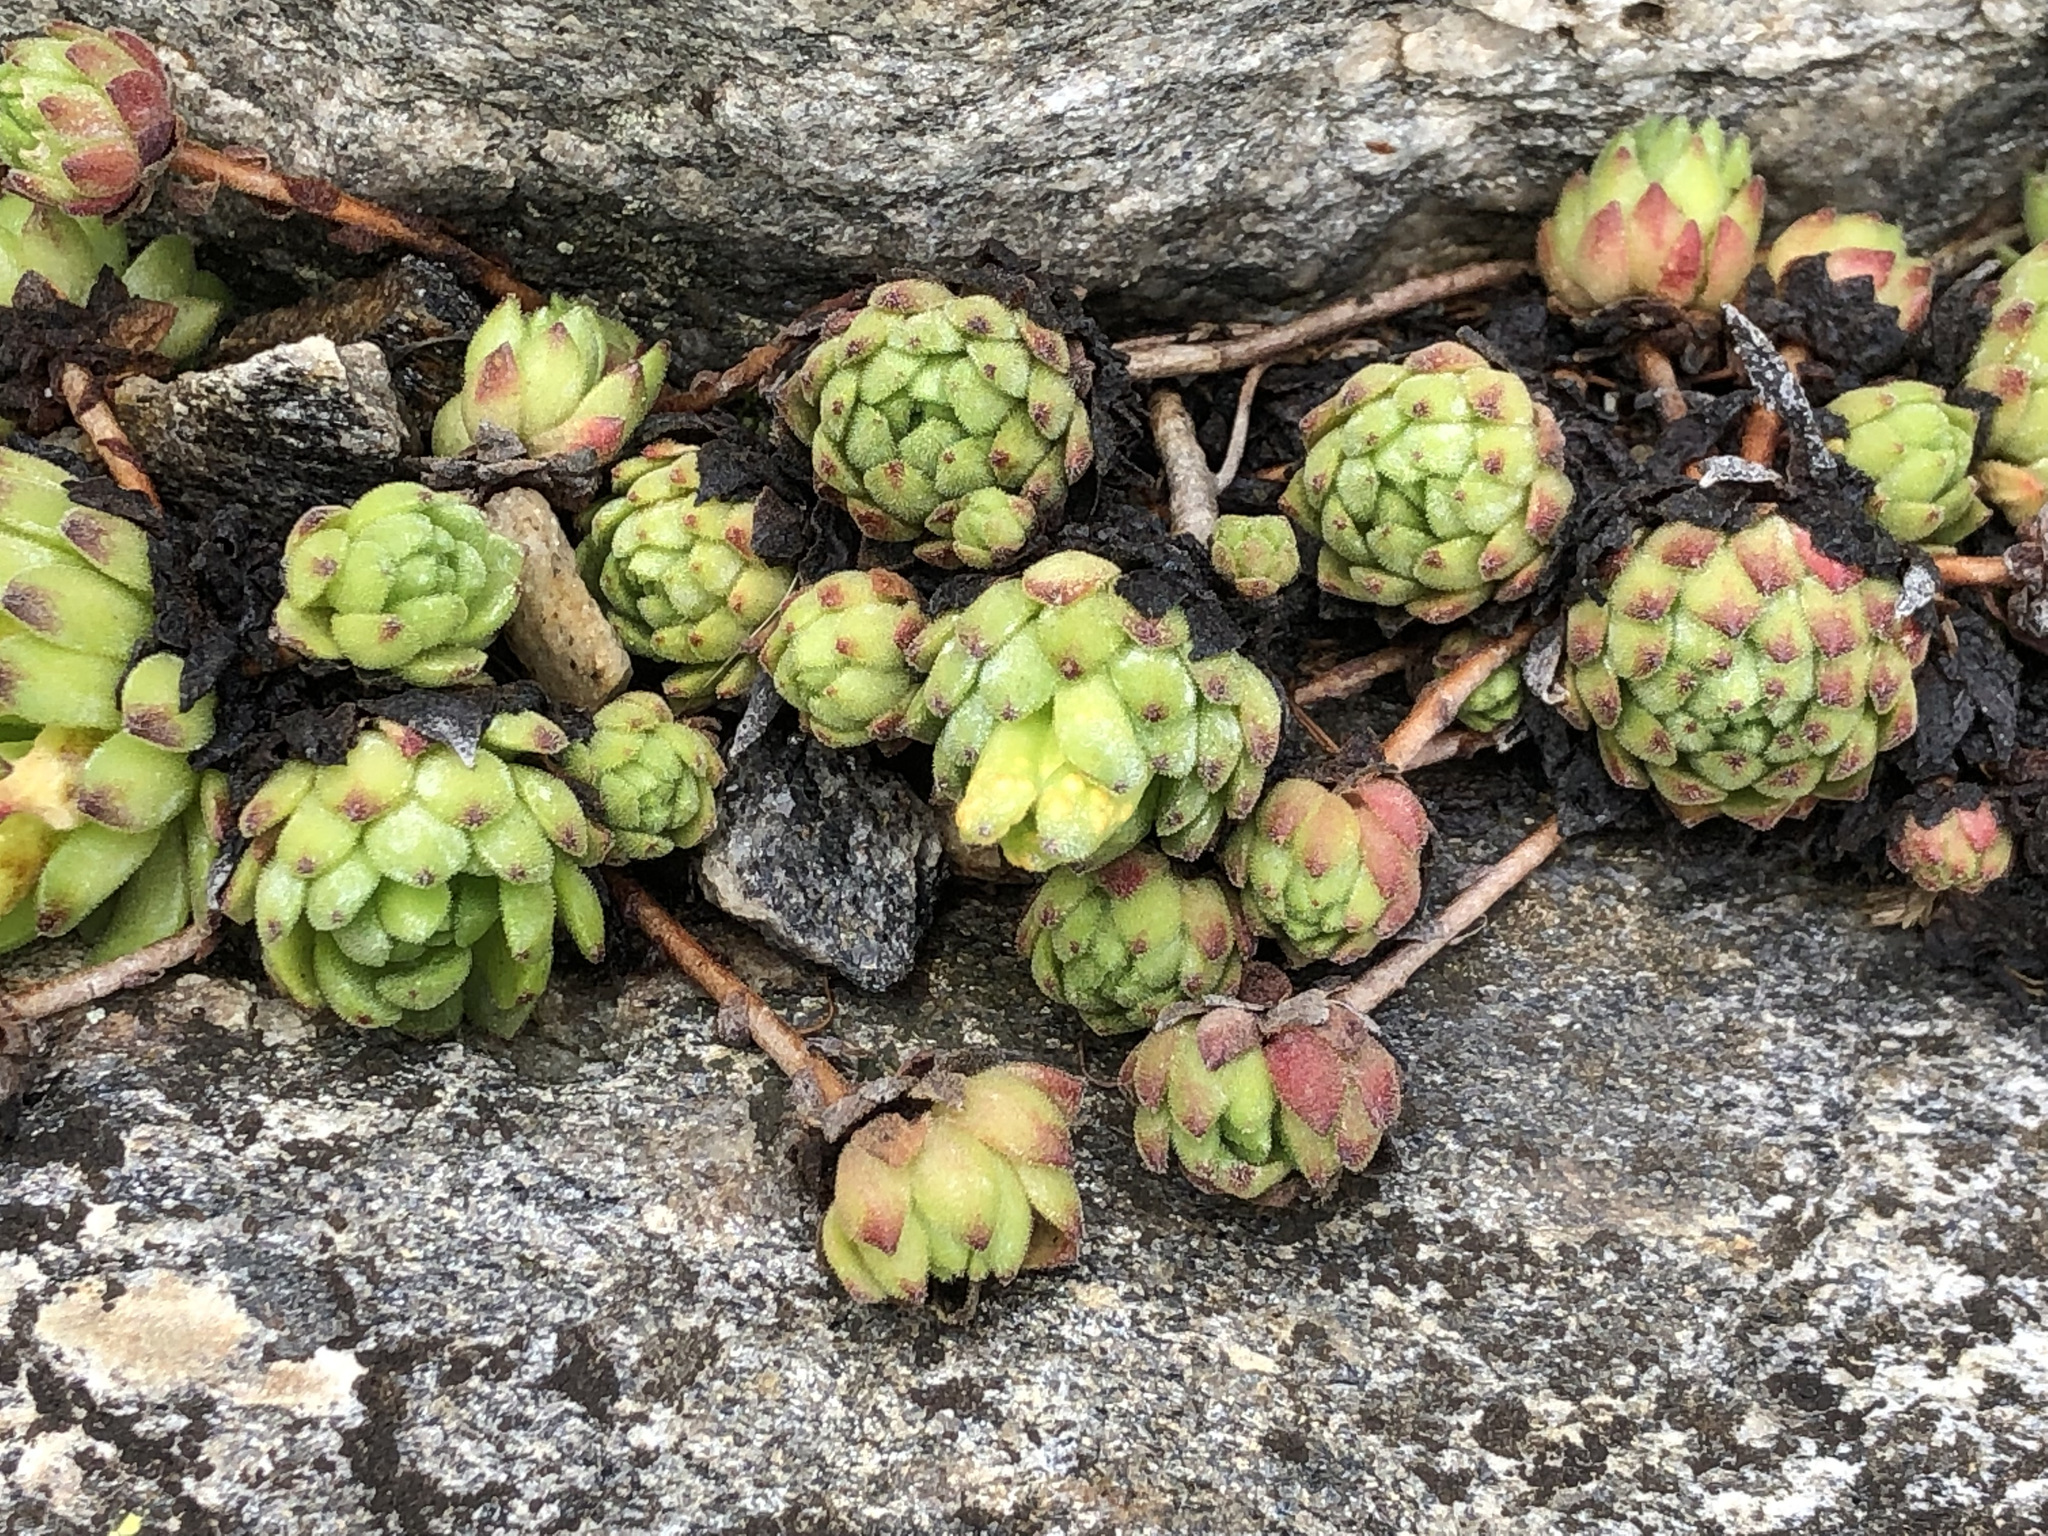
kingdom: Plantae
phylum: Tracheophyta
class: Magnoliopsida
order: Saxifragales
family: Crassulaceae
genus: Sempervivum
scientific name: Sempervivum montanum
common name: Mountain house-leek
